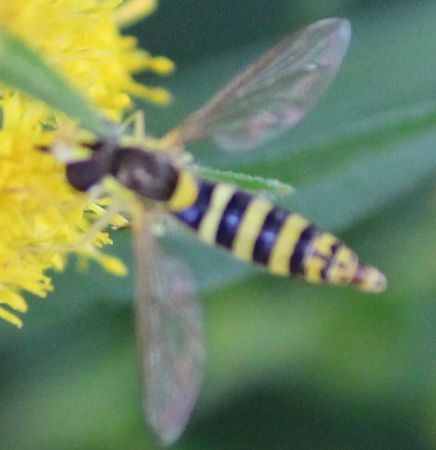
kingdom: Animalia
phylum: Arthropoda
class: Insecta
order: Diptera
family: Syrphidae
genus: Sphaerophoria
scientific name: Sphaerophoria
